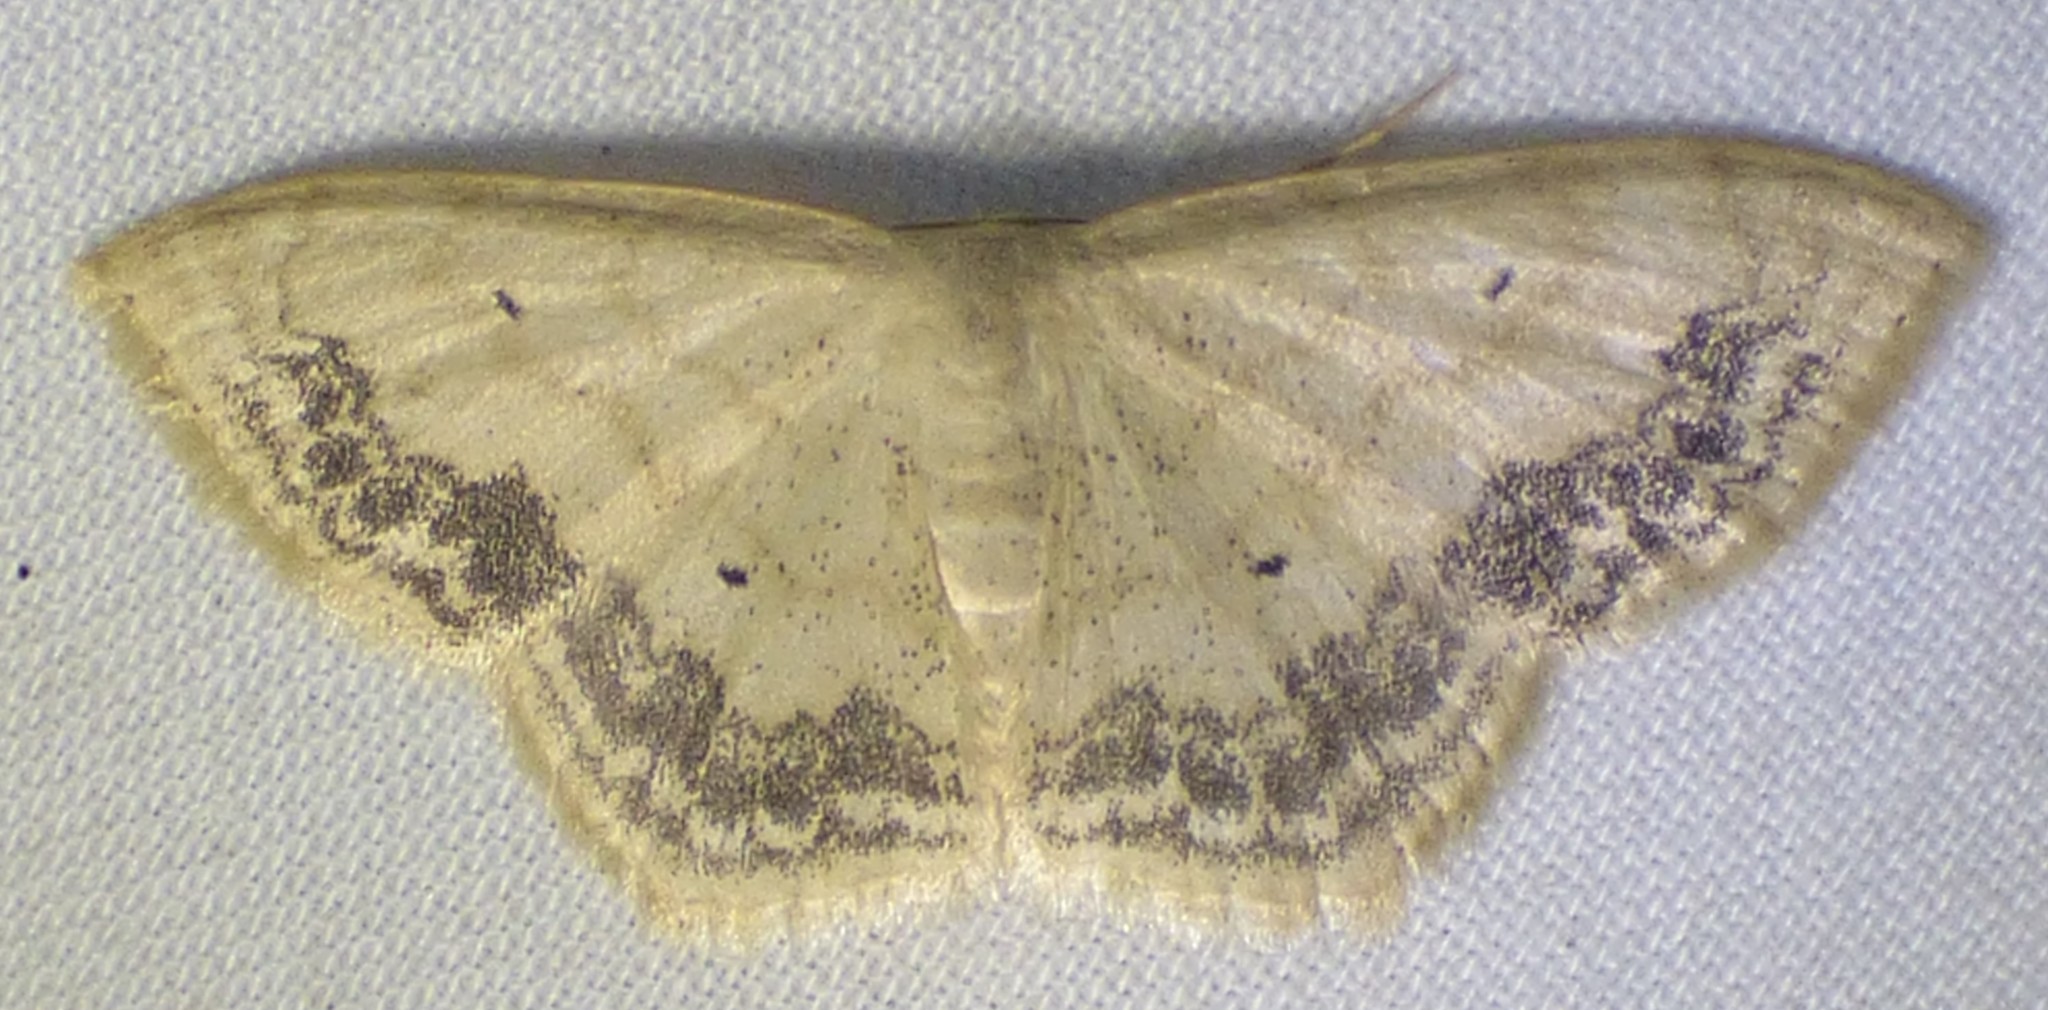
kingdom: Animalia
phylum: Arthropoda
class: Insecta
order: Lepidoptera
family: Geometridae
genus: Scopula
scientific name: Scopula limboundata
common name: Large lace border
